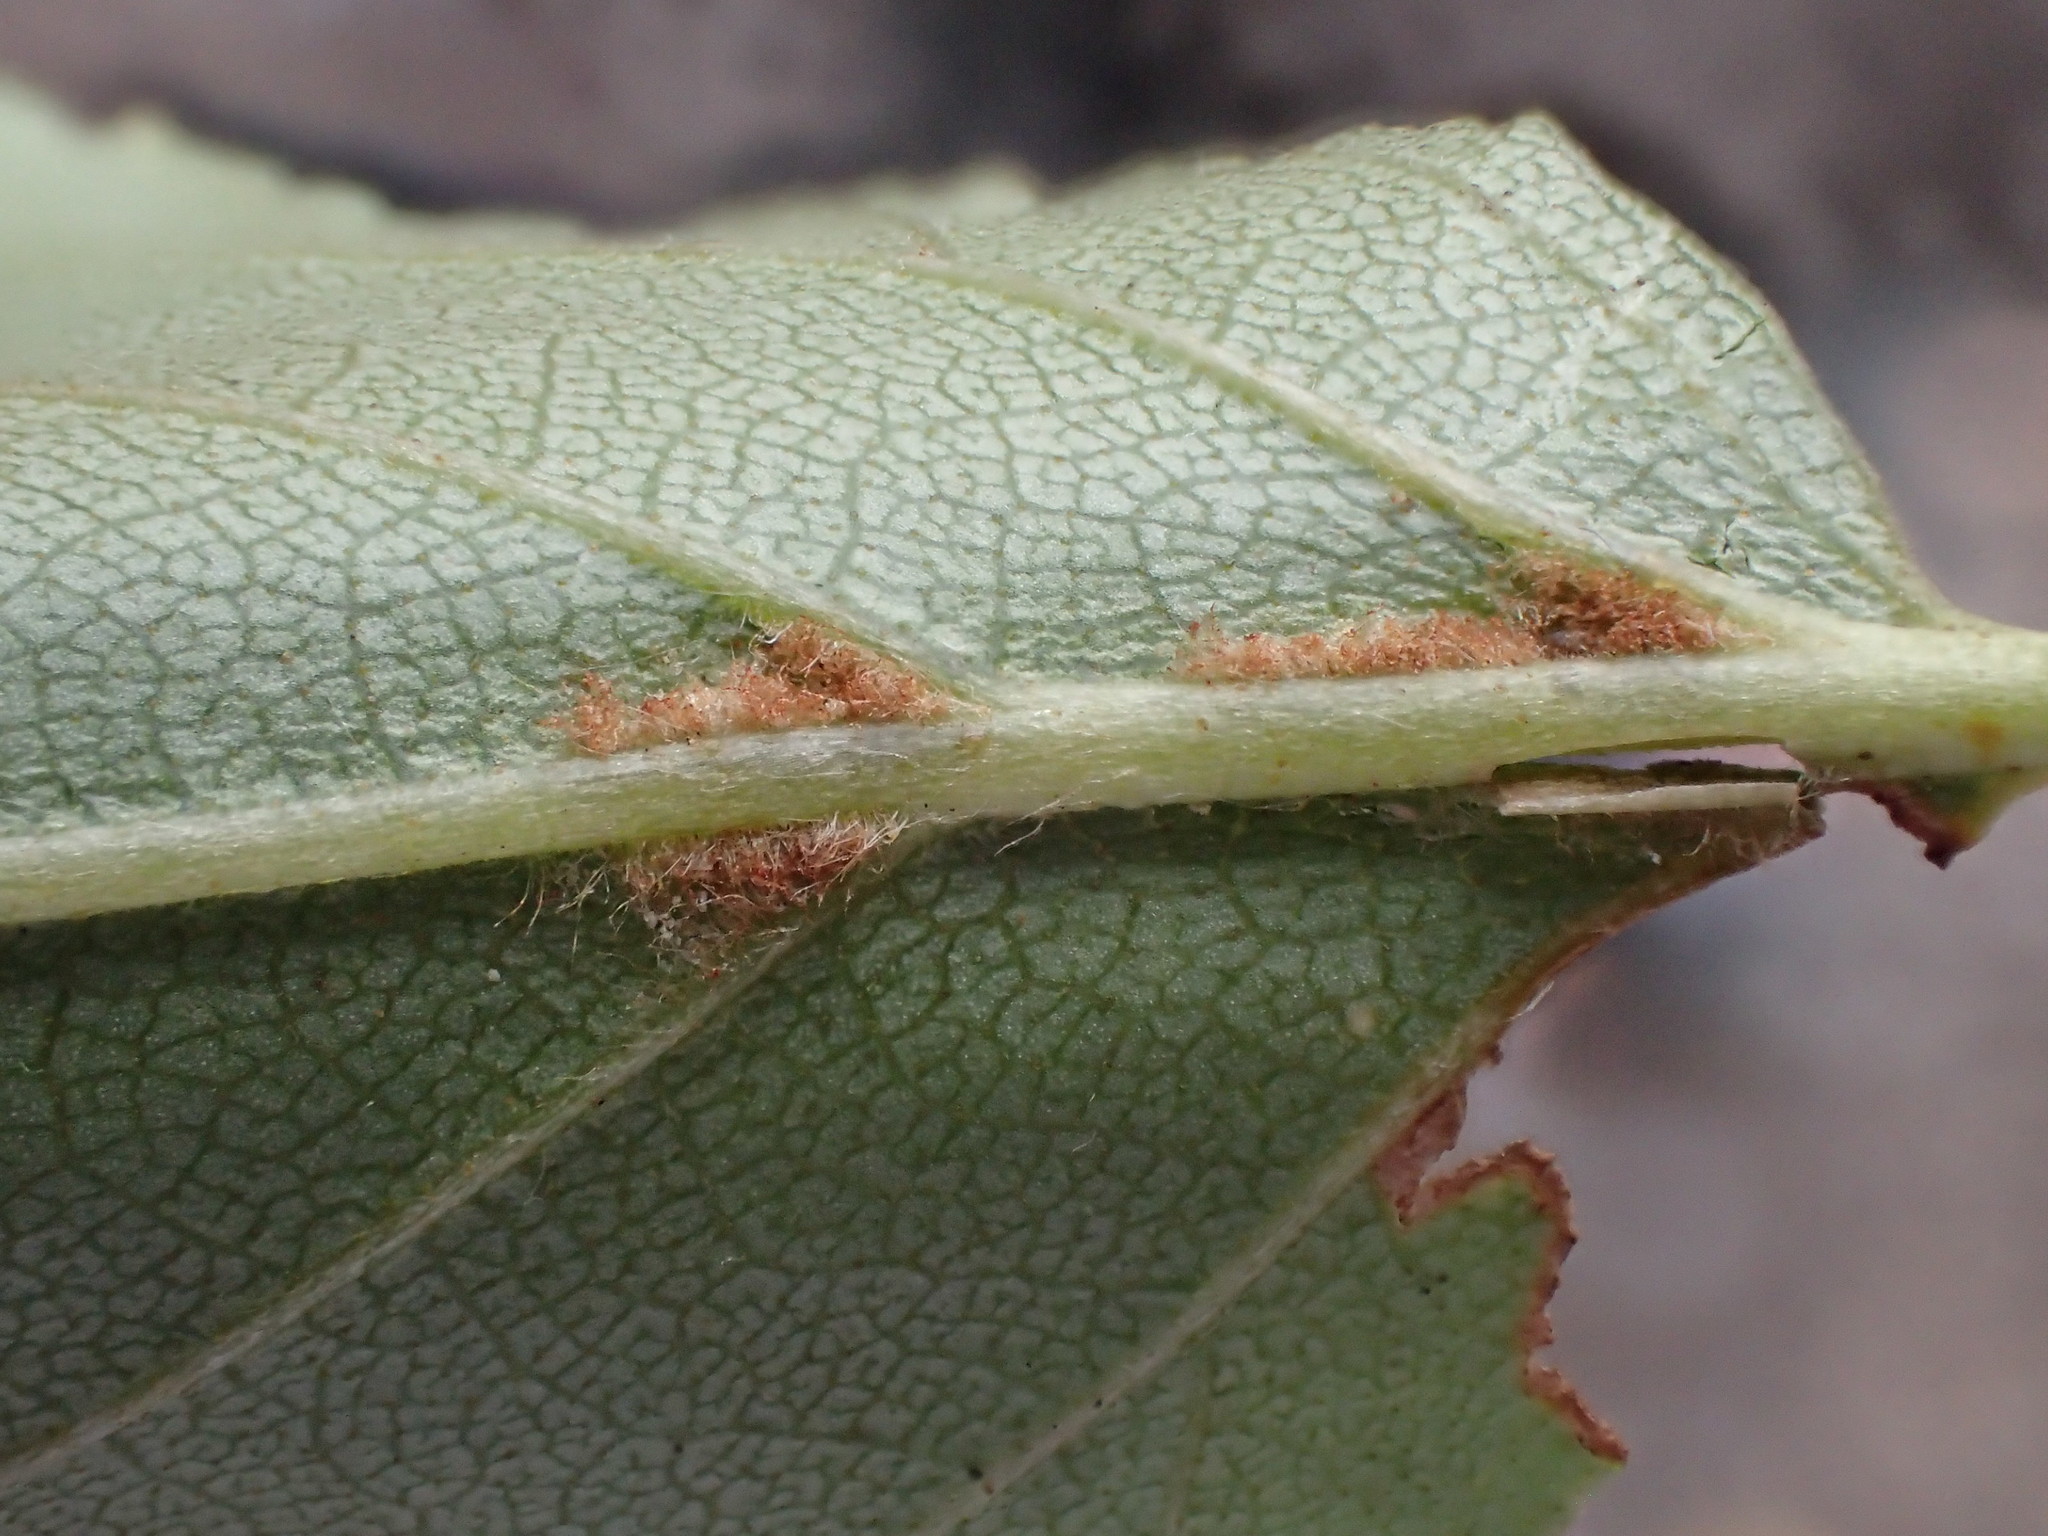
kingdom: Animalia
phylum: Arthropoda
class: Arachnida
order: Trombidiformes
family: Eriophyidae
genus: Aculus
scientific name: Aculus leionotus
